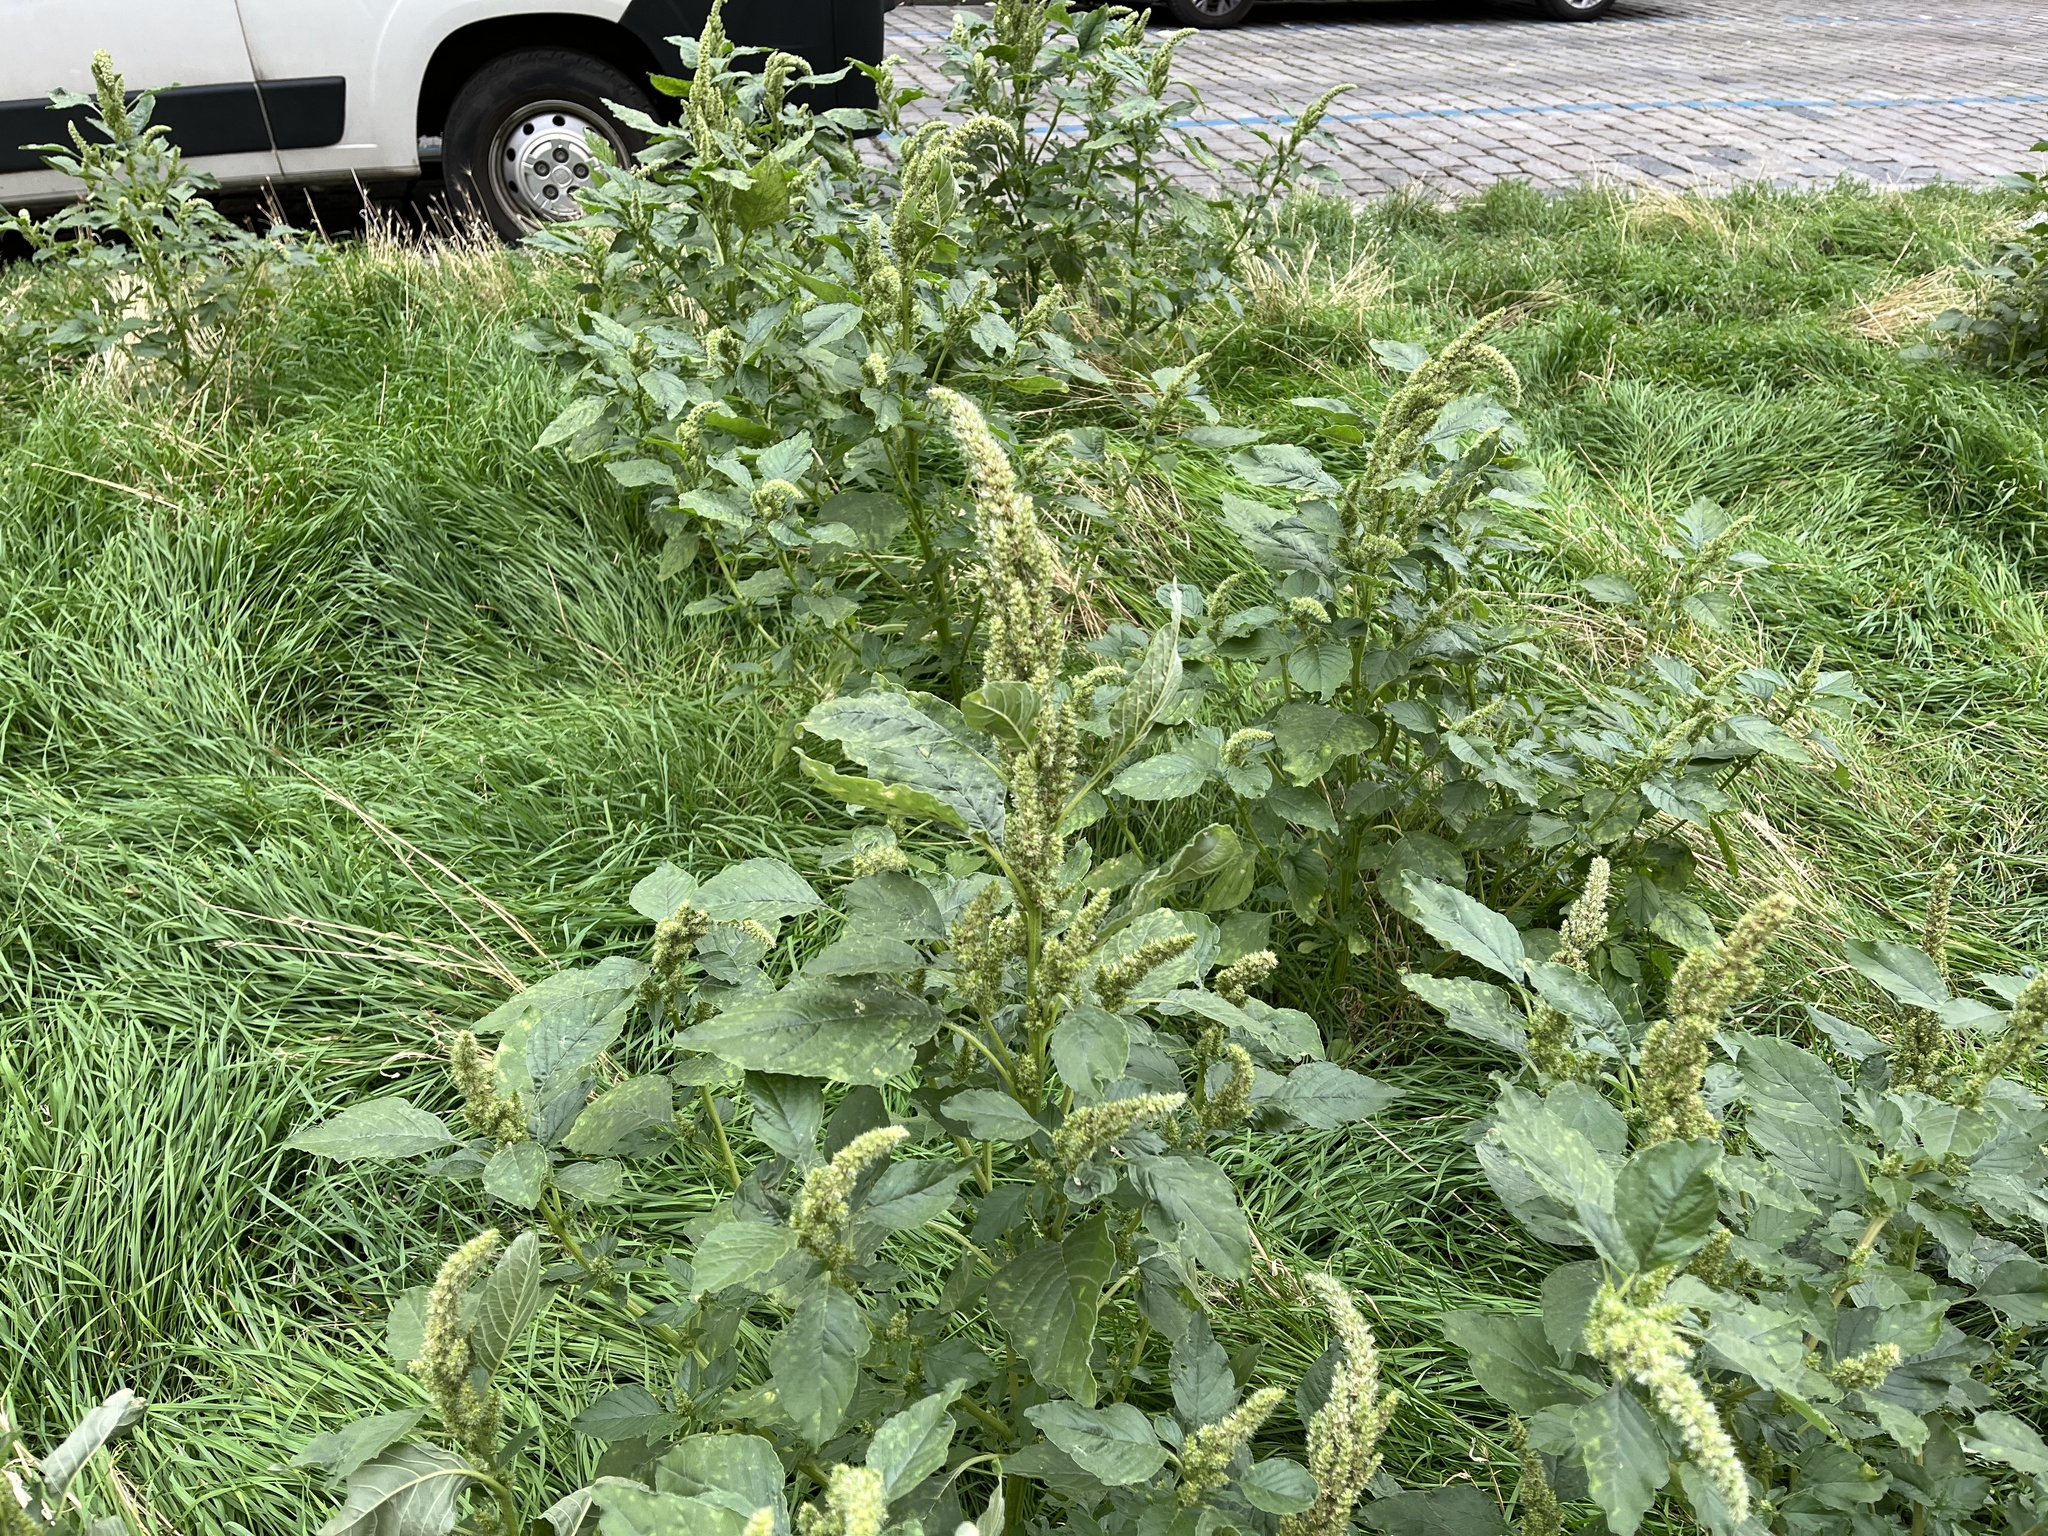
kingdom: Plantae
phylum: Tracheophyta
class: Magnoliopsida
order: Caryophyllales
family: Amaranthaceae
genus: Amaranthus
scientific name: Amaranthus retroflexus
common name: Redroot amaranth
